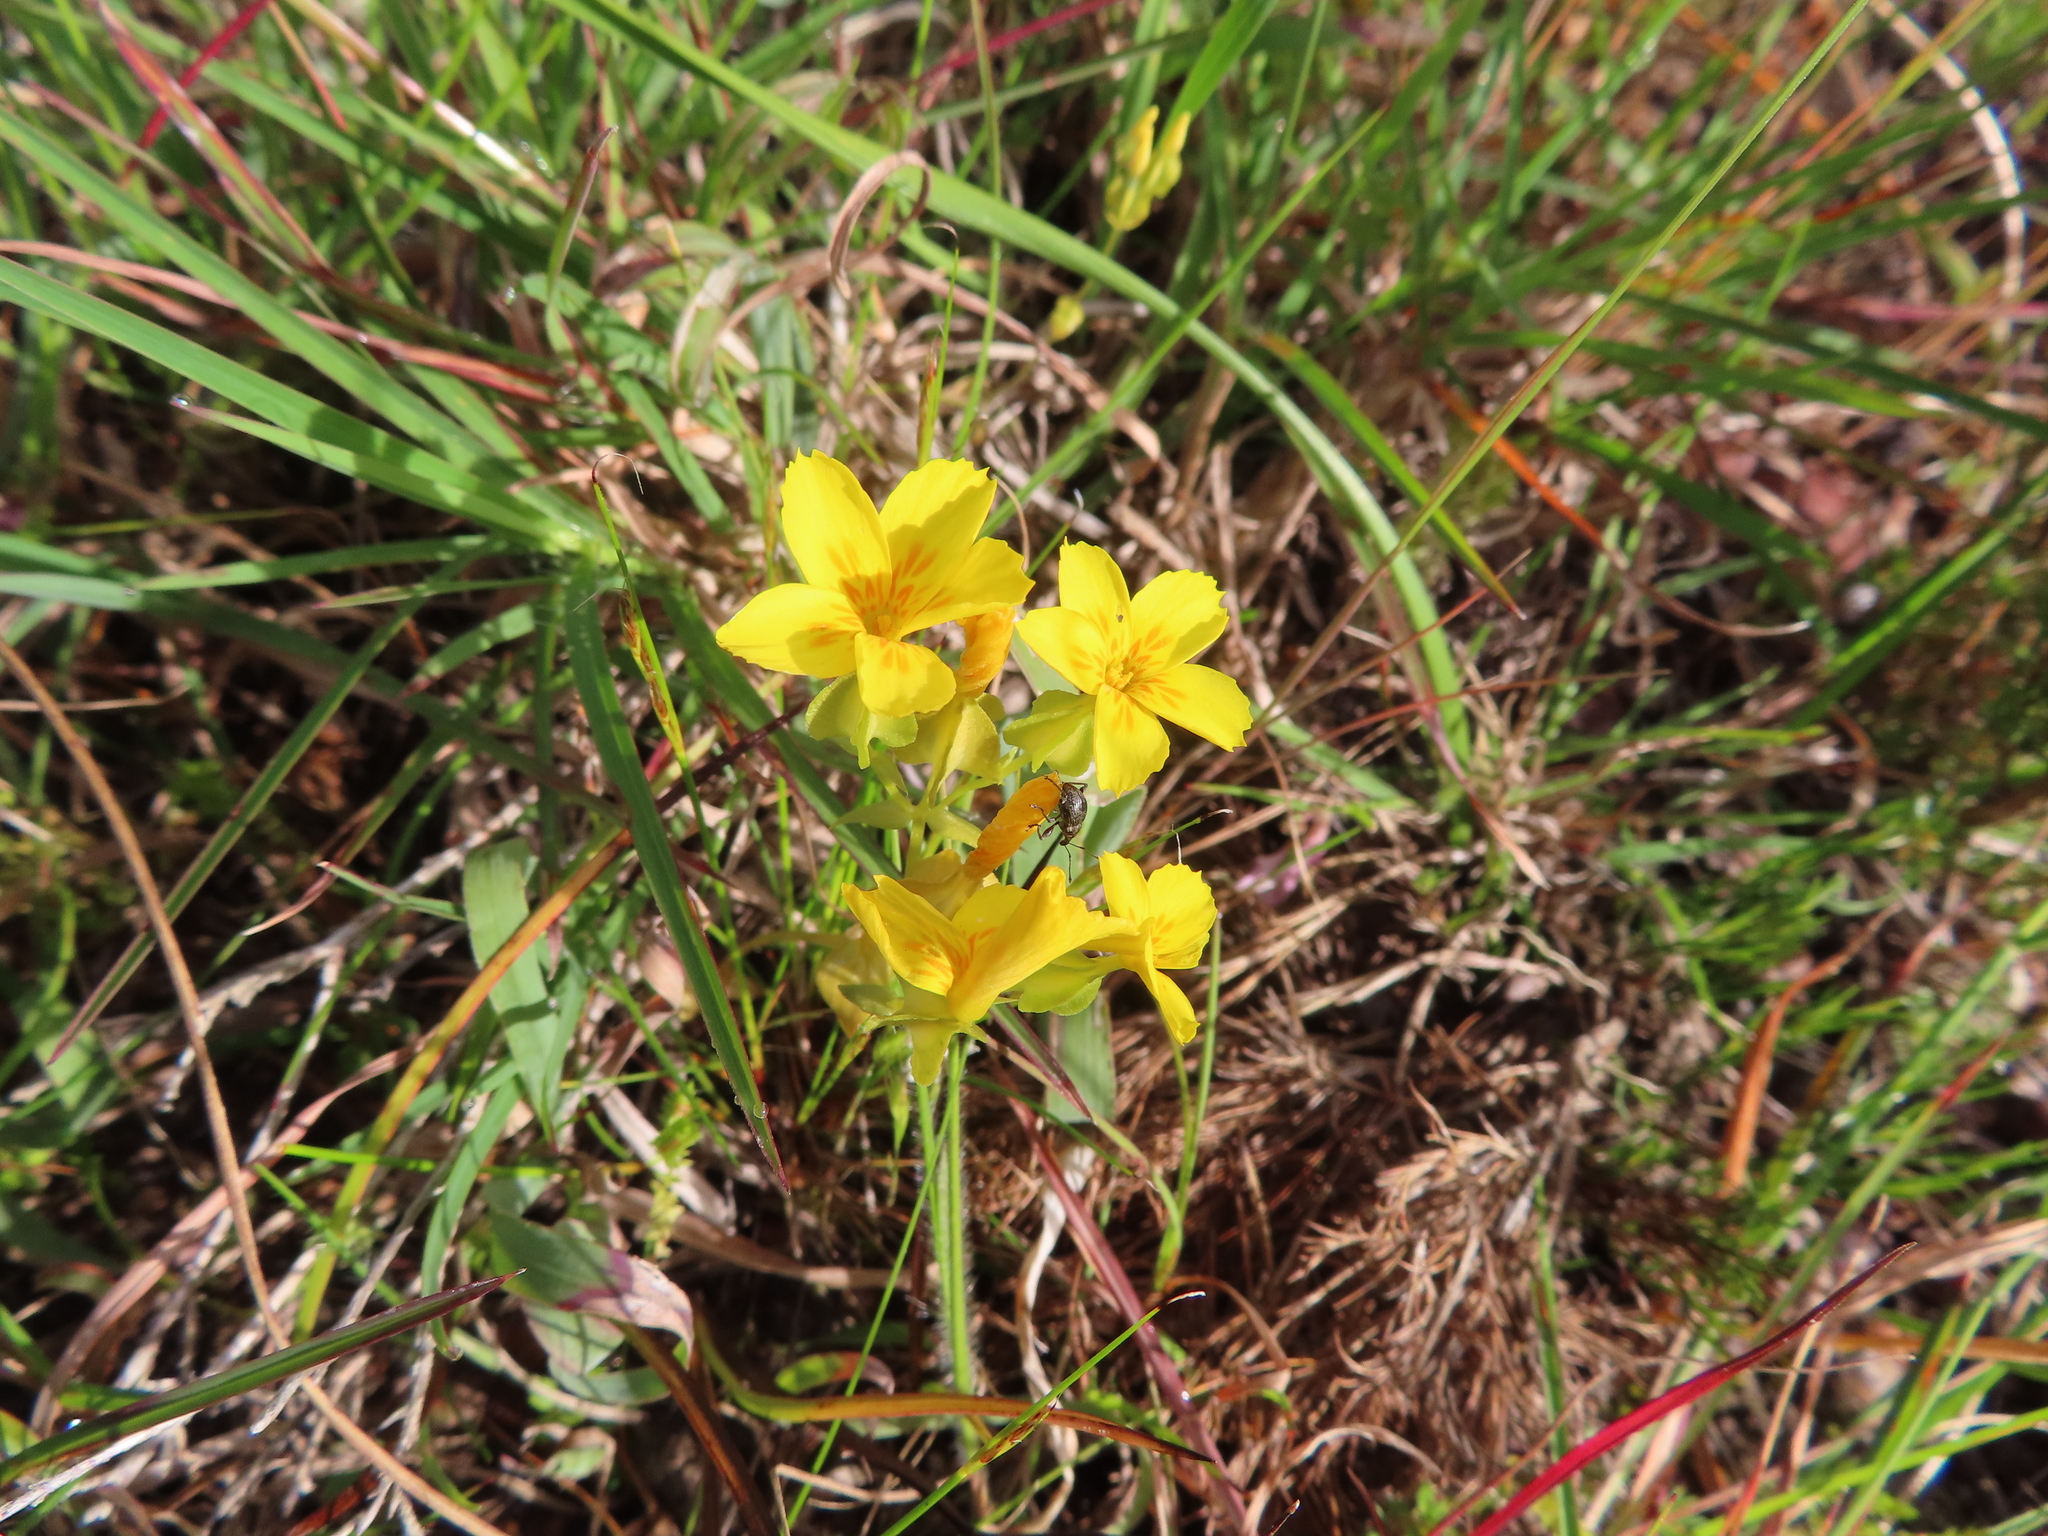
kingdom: Plantae
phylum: Tracheophyta
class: Magnoliopsida
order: Gentianales
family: Gentianaceae
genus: Sebaea
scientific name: Sebaea solaris
